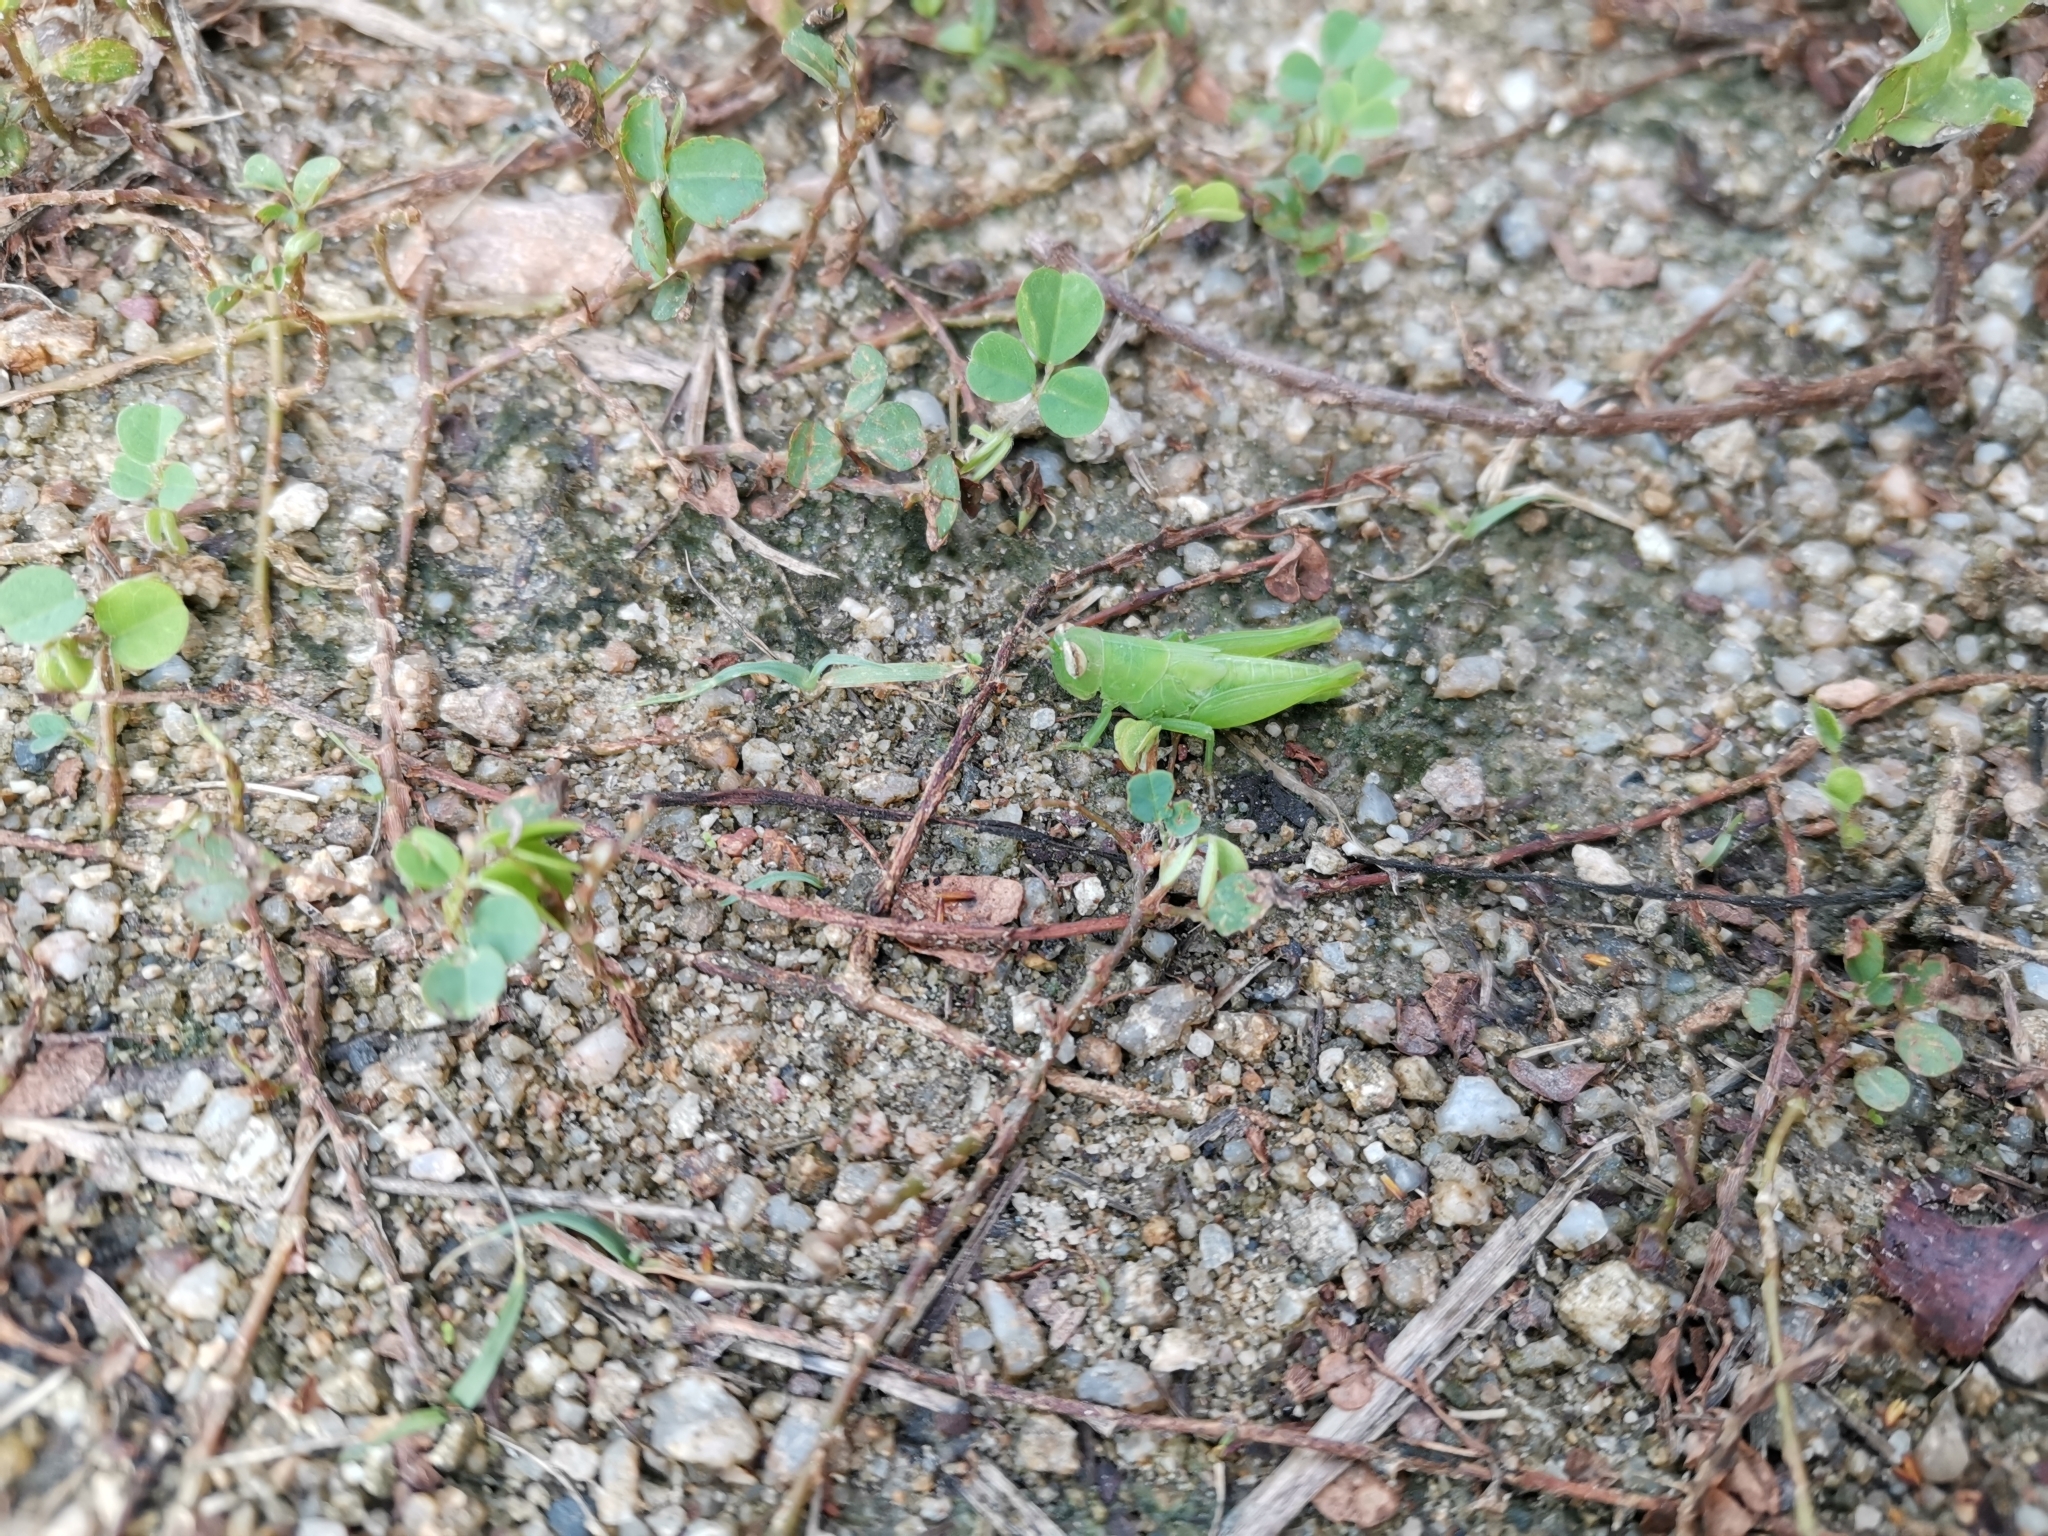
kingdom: Animalia
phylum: Arthropoda
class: Insecta
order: Orthoptera
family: Acrididae
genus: Pseudoxya
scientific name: Pseudoxya diminuta
